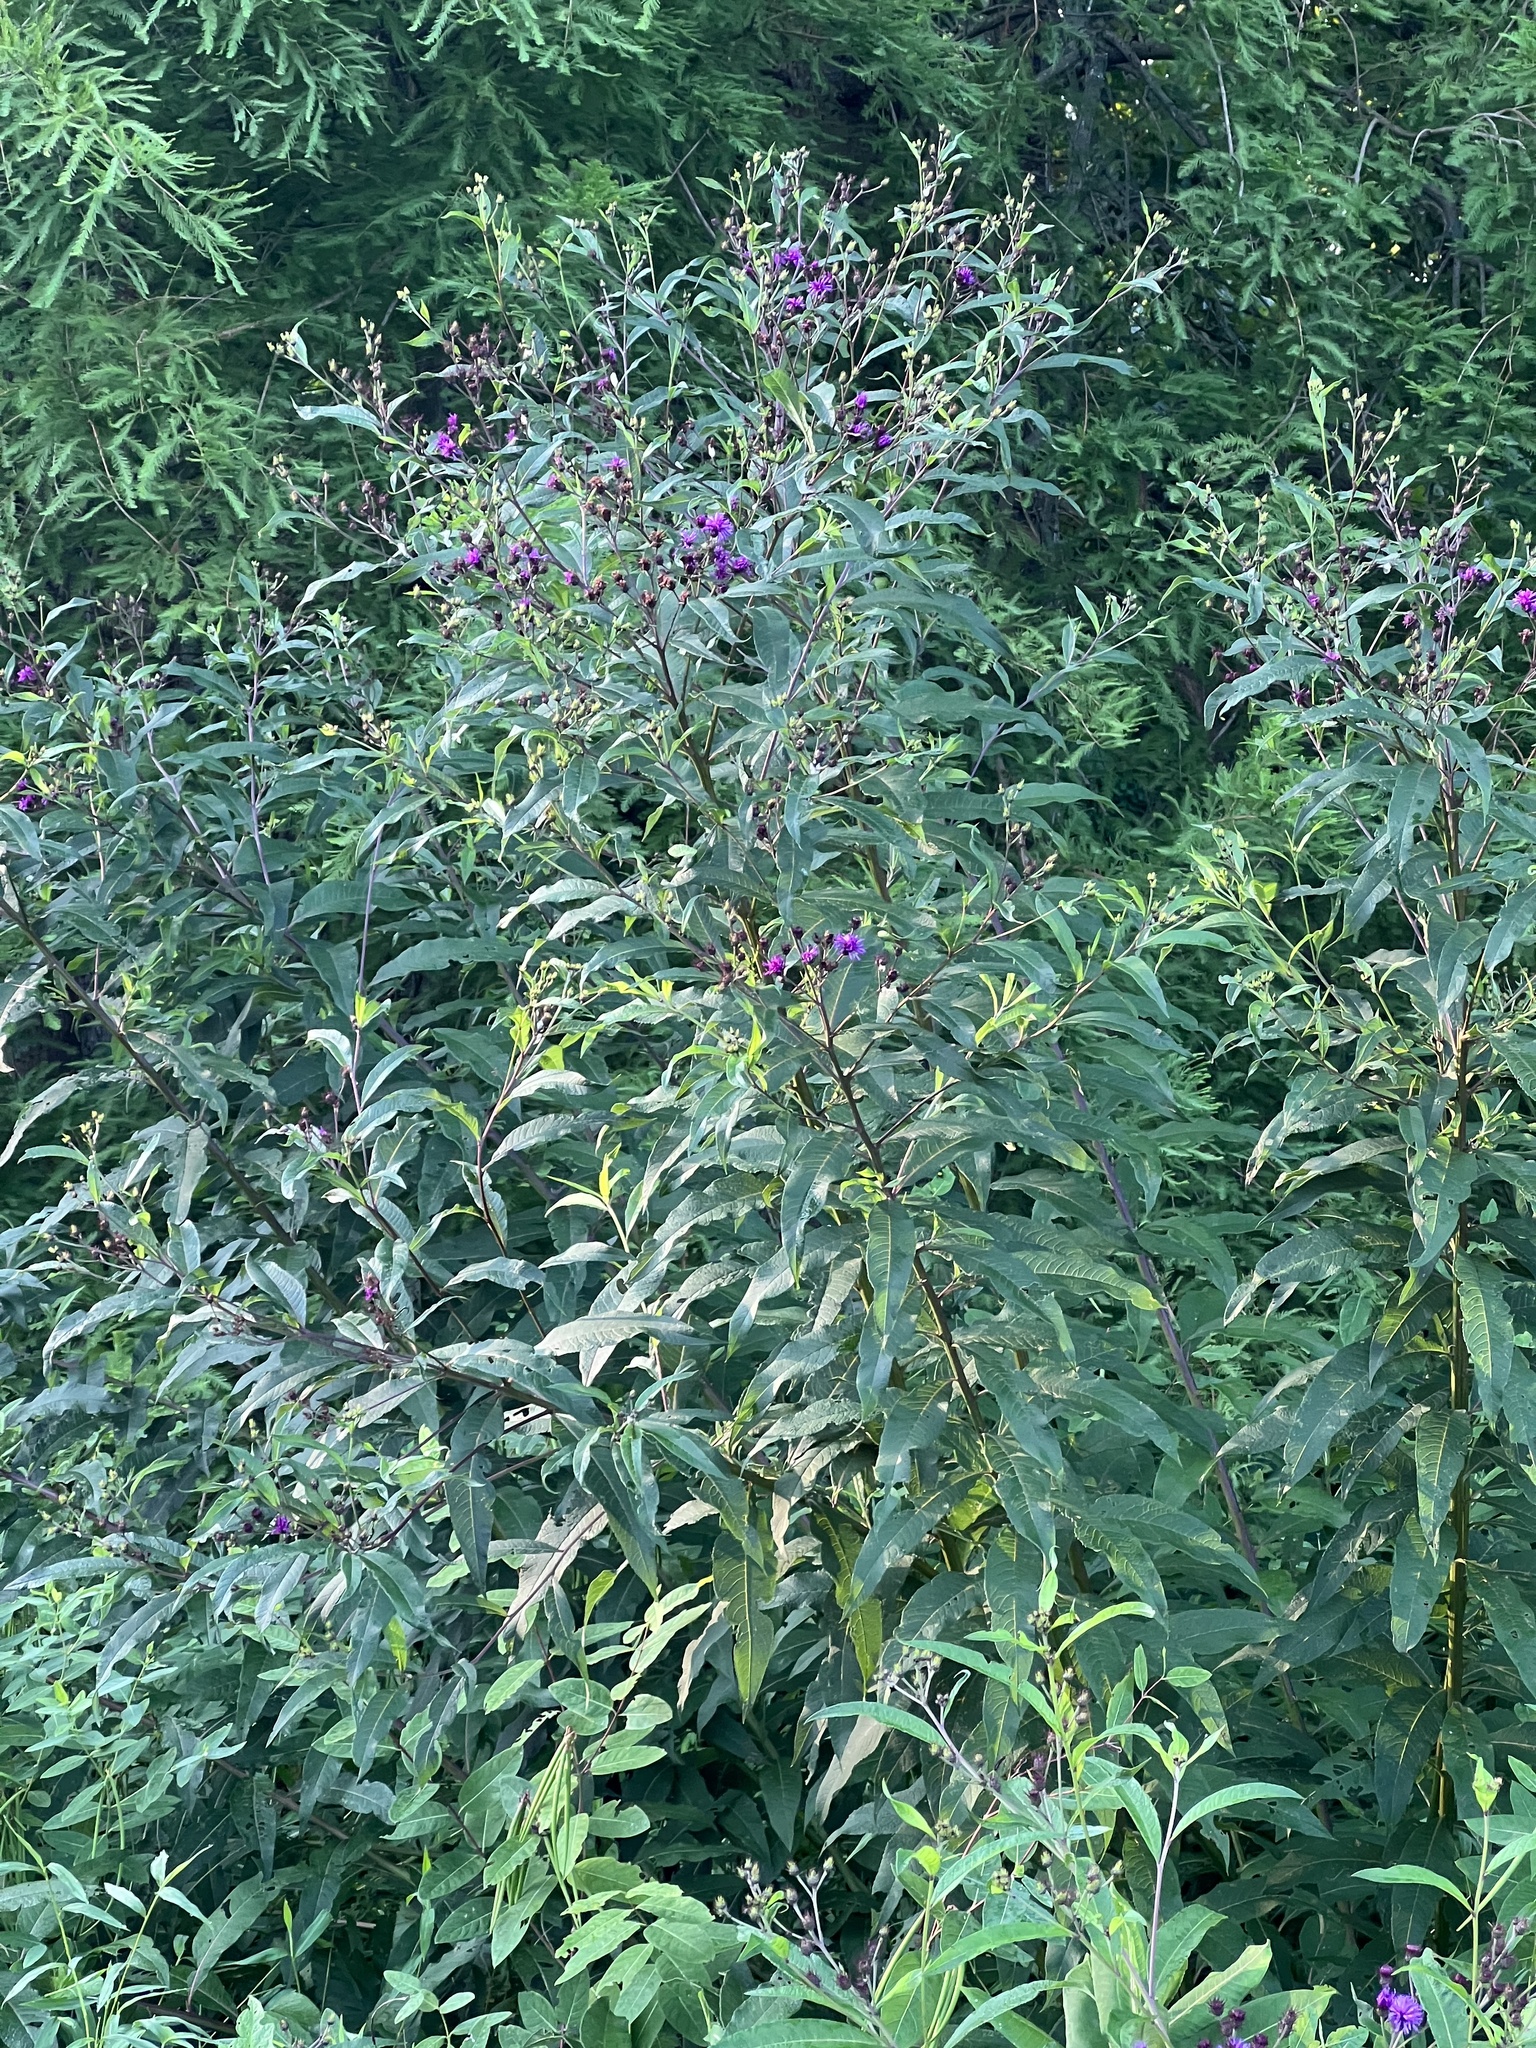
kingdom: Plantae
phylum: Tracheophyta
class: Magnoliopsida
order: Asterales
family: Asteraceae
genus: Vernonia
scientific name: Vernonia noveboracensis
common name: New york ironweed
